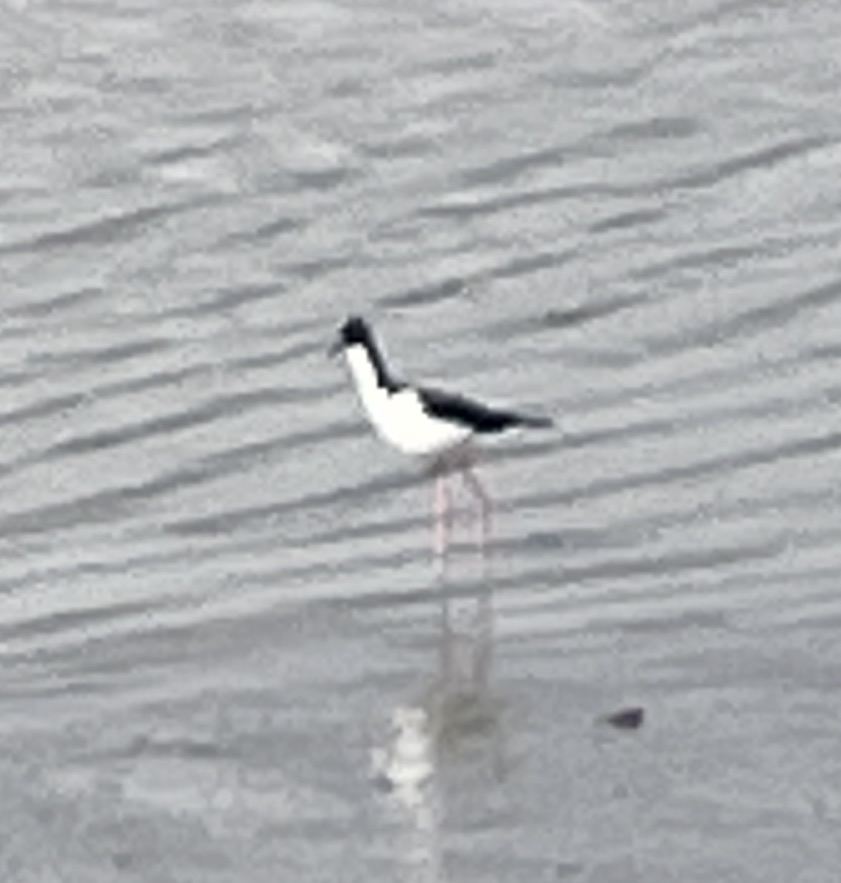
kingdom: Animalia
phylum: Chordata
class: Aves
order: Charadriiformes
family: Recurvirostridae
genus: Himantopus
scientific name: Himantopus mexicanus
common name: Black-necked stilt
